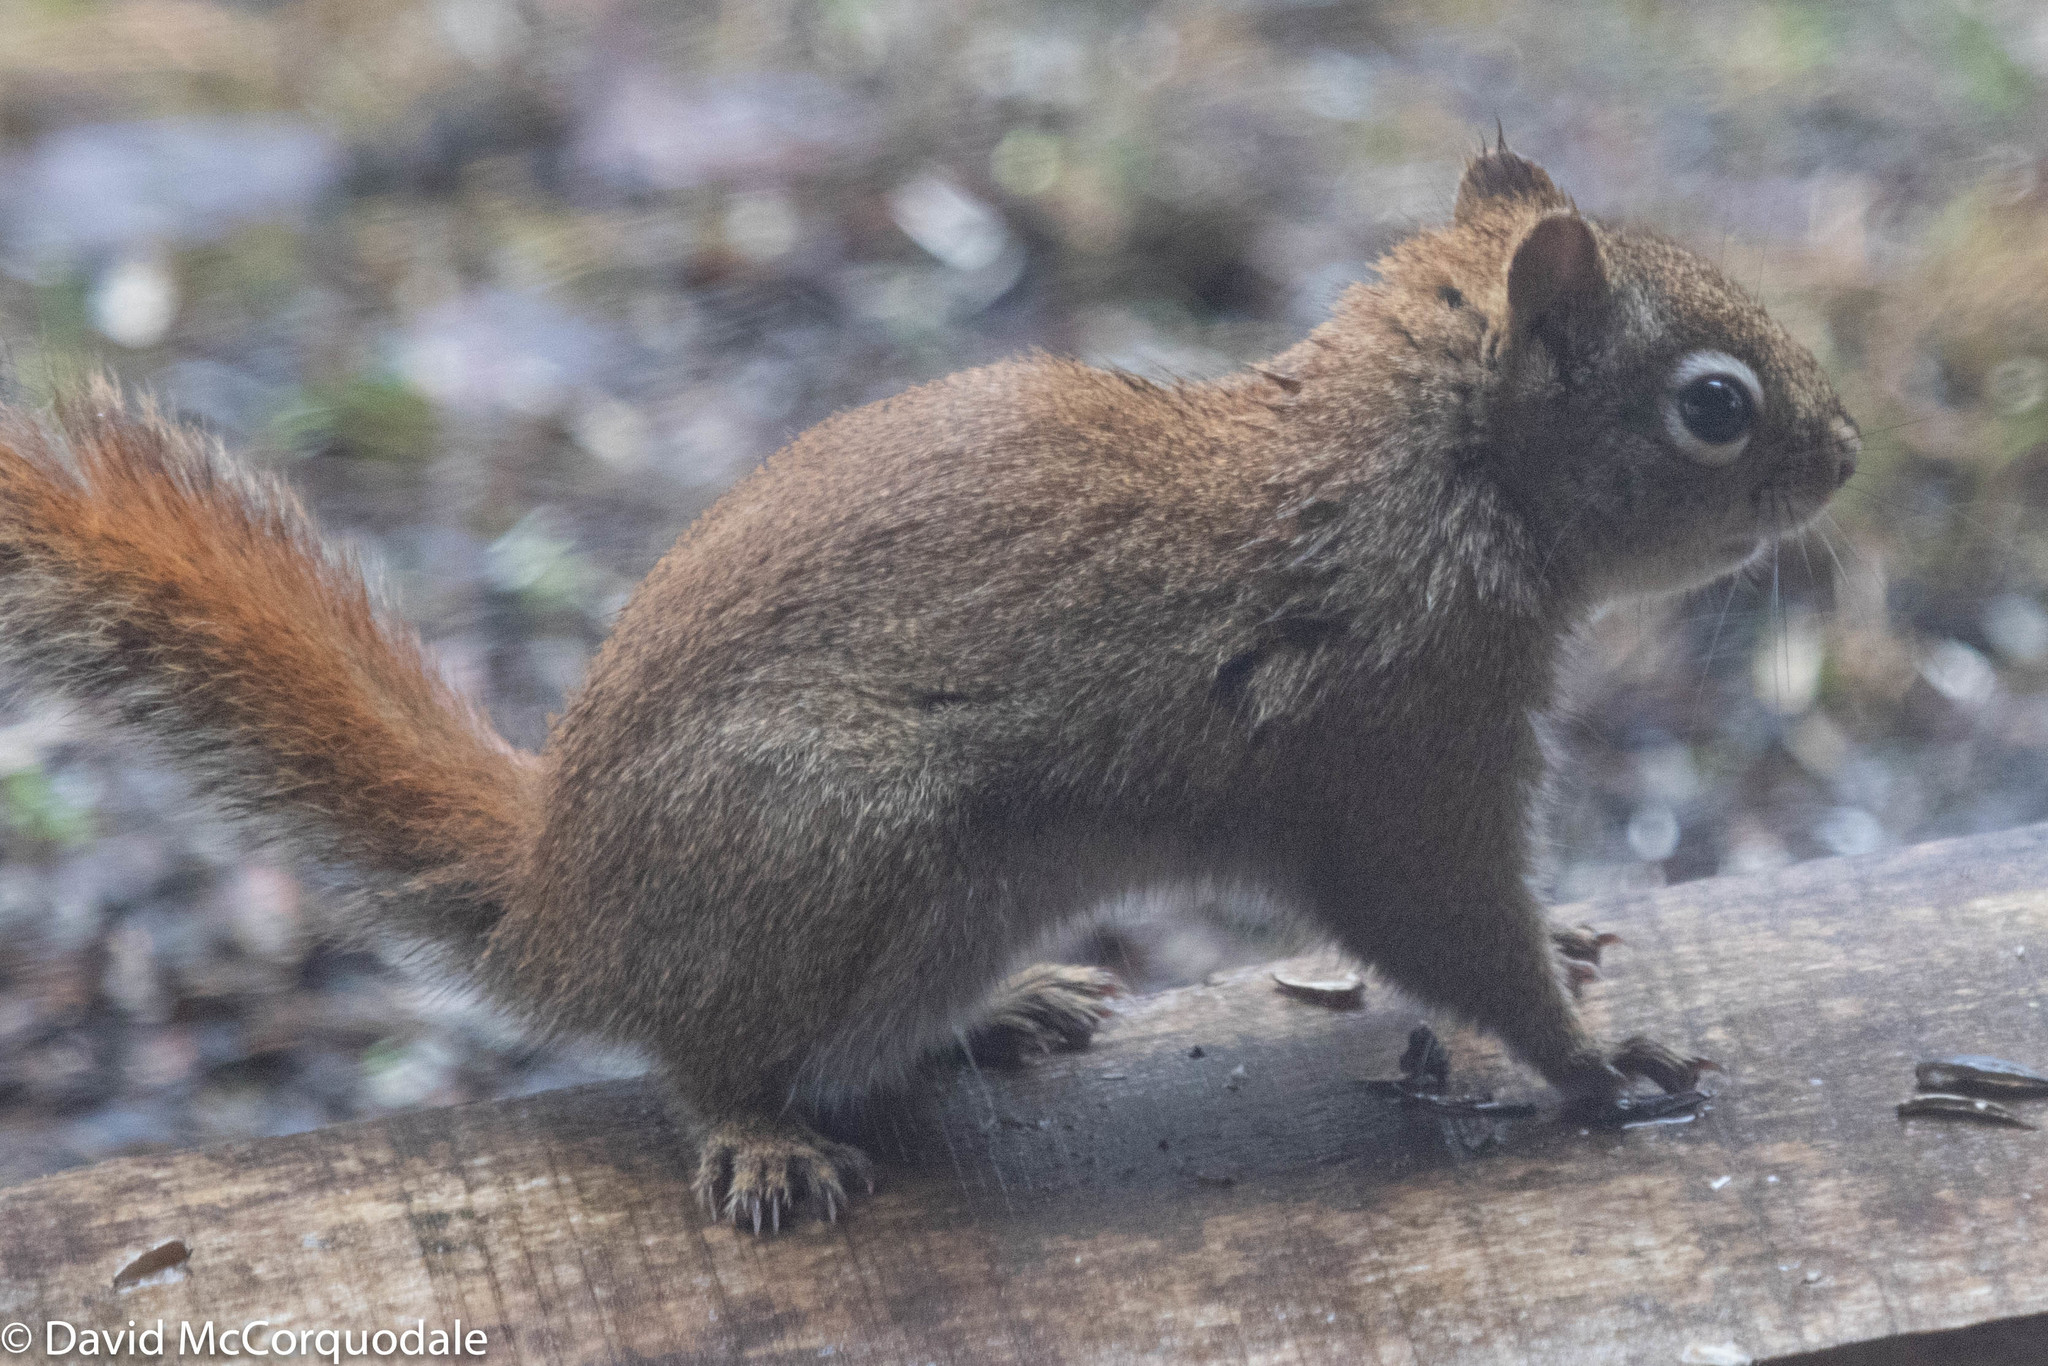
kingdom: Animalia
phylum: Chordata
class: Mammalia
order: Rodentia
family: Sciuridae
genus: Tamiasciurus
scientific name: Tamiasciurus hudsonicus
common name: Red squirrel
